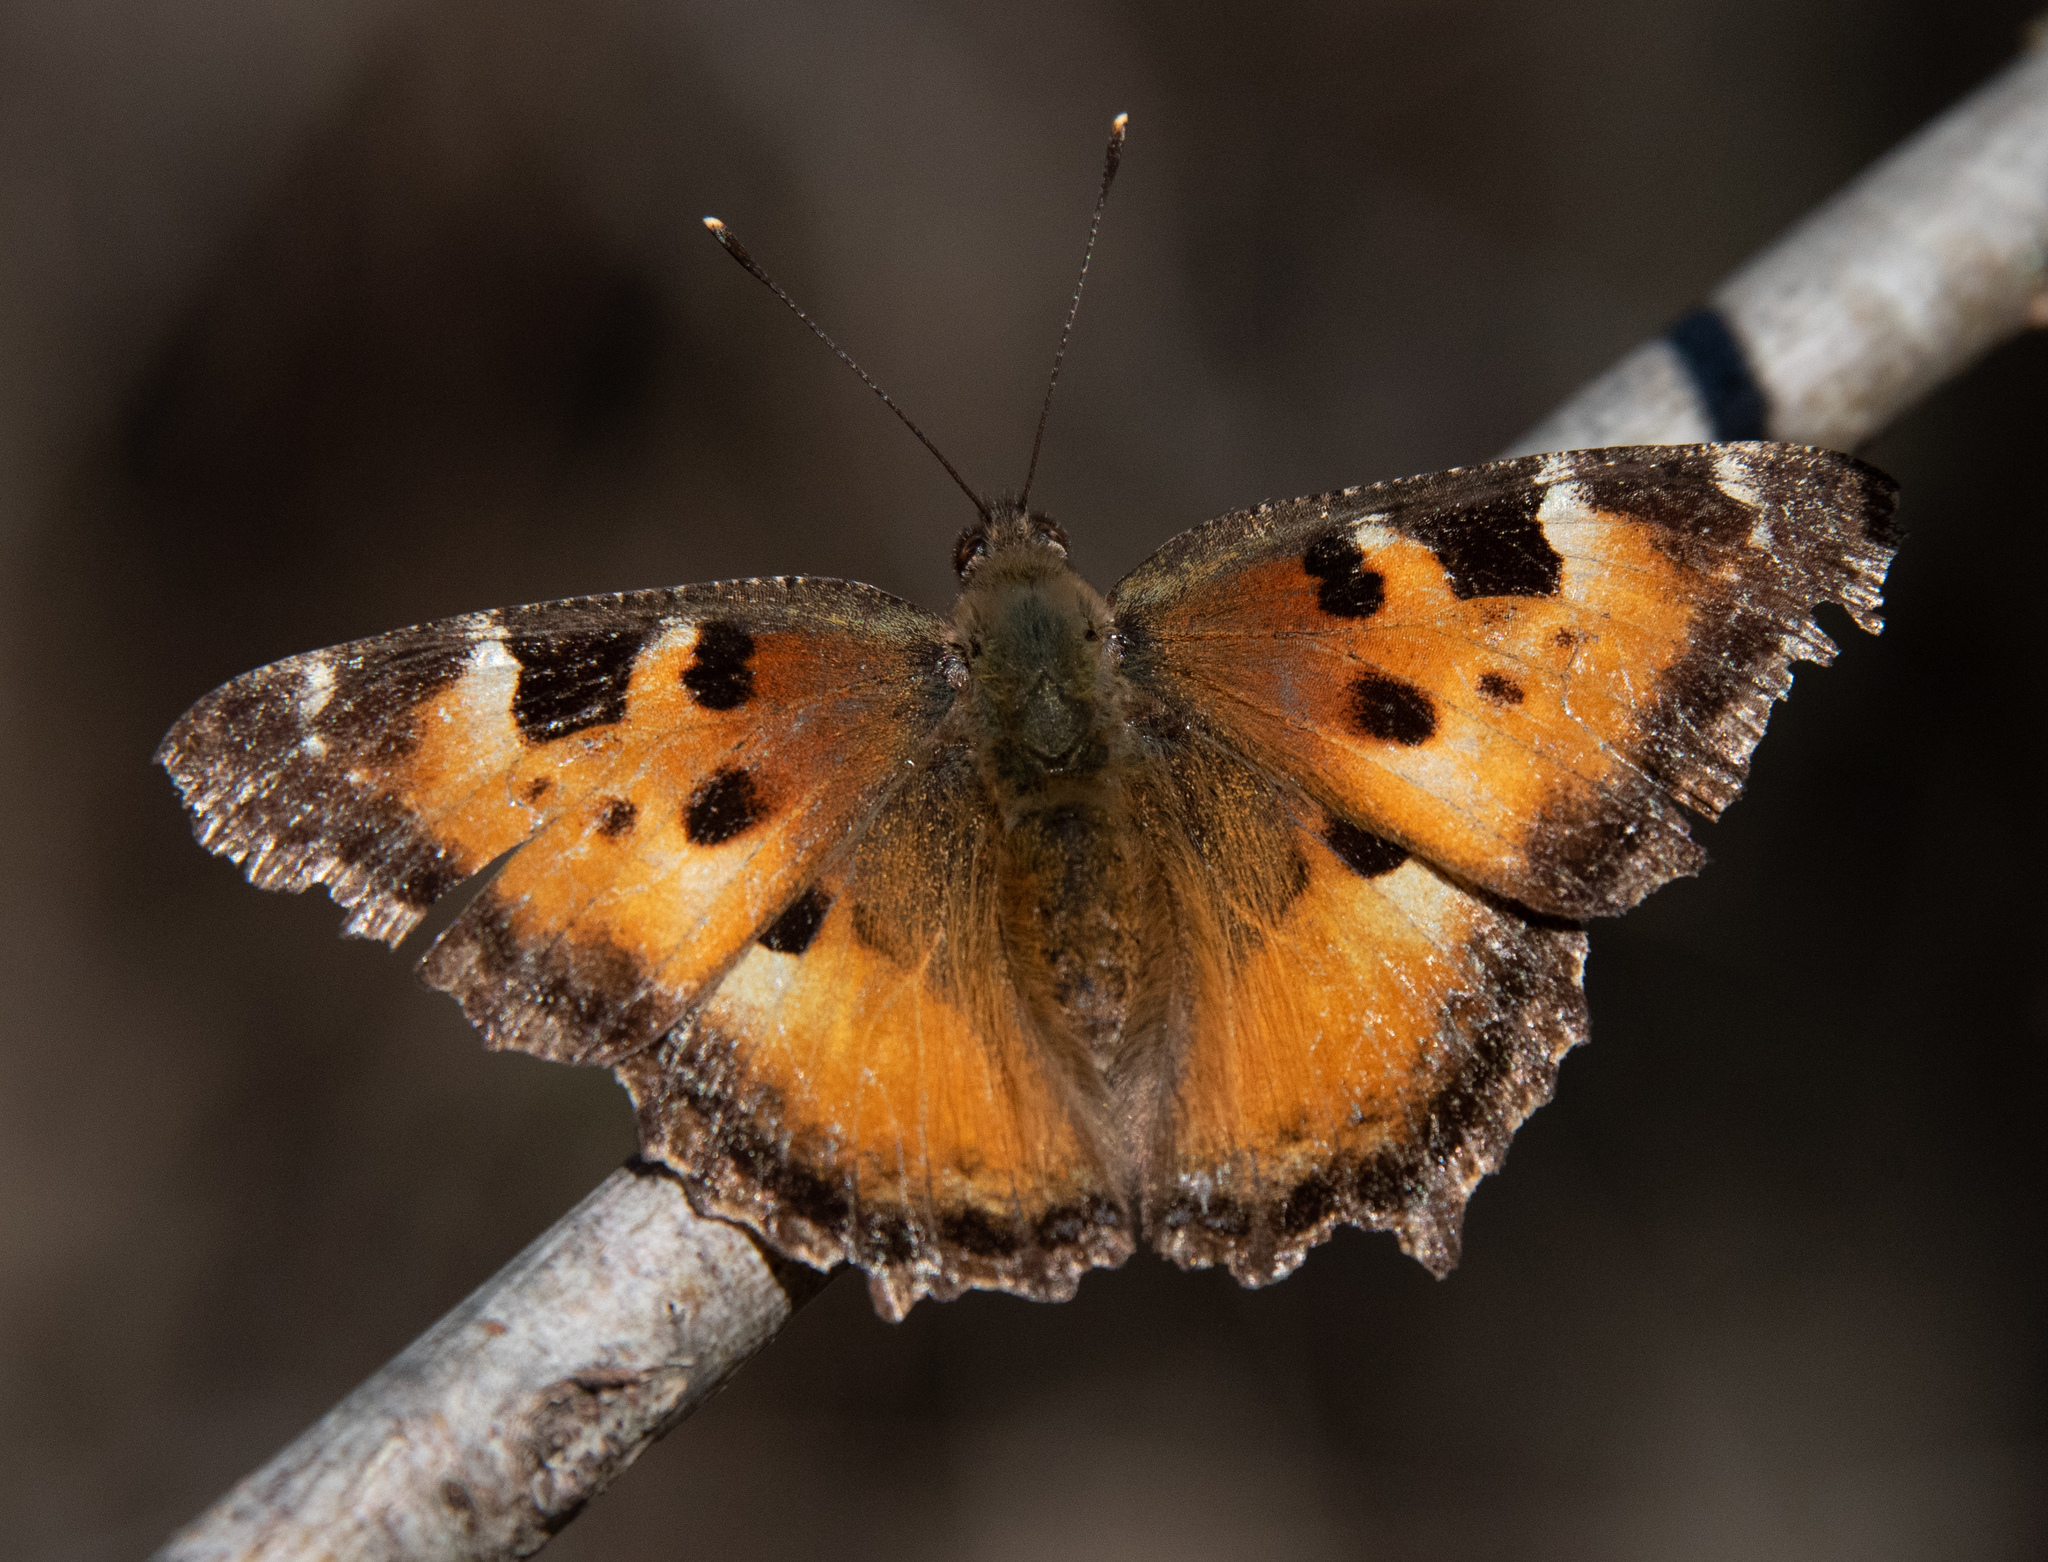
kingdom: Animalia
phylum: Arthropoda
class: Insecta
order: Lepidoptera
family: Nymphalidae
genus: Nymphalis
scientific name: Nymphalis californica
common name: California tortoiseshell
